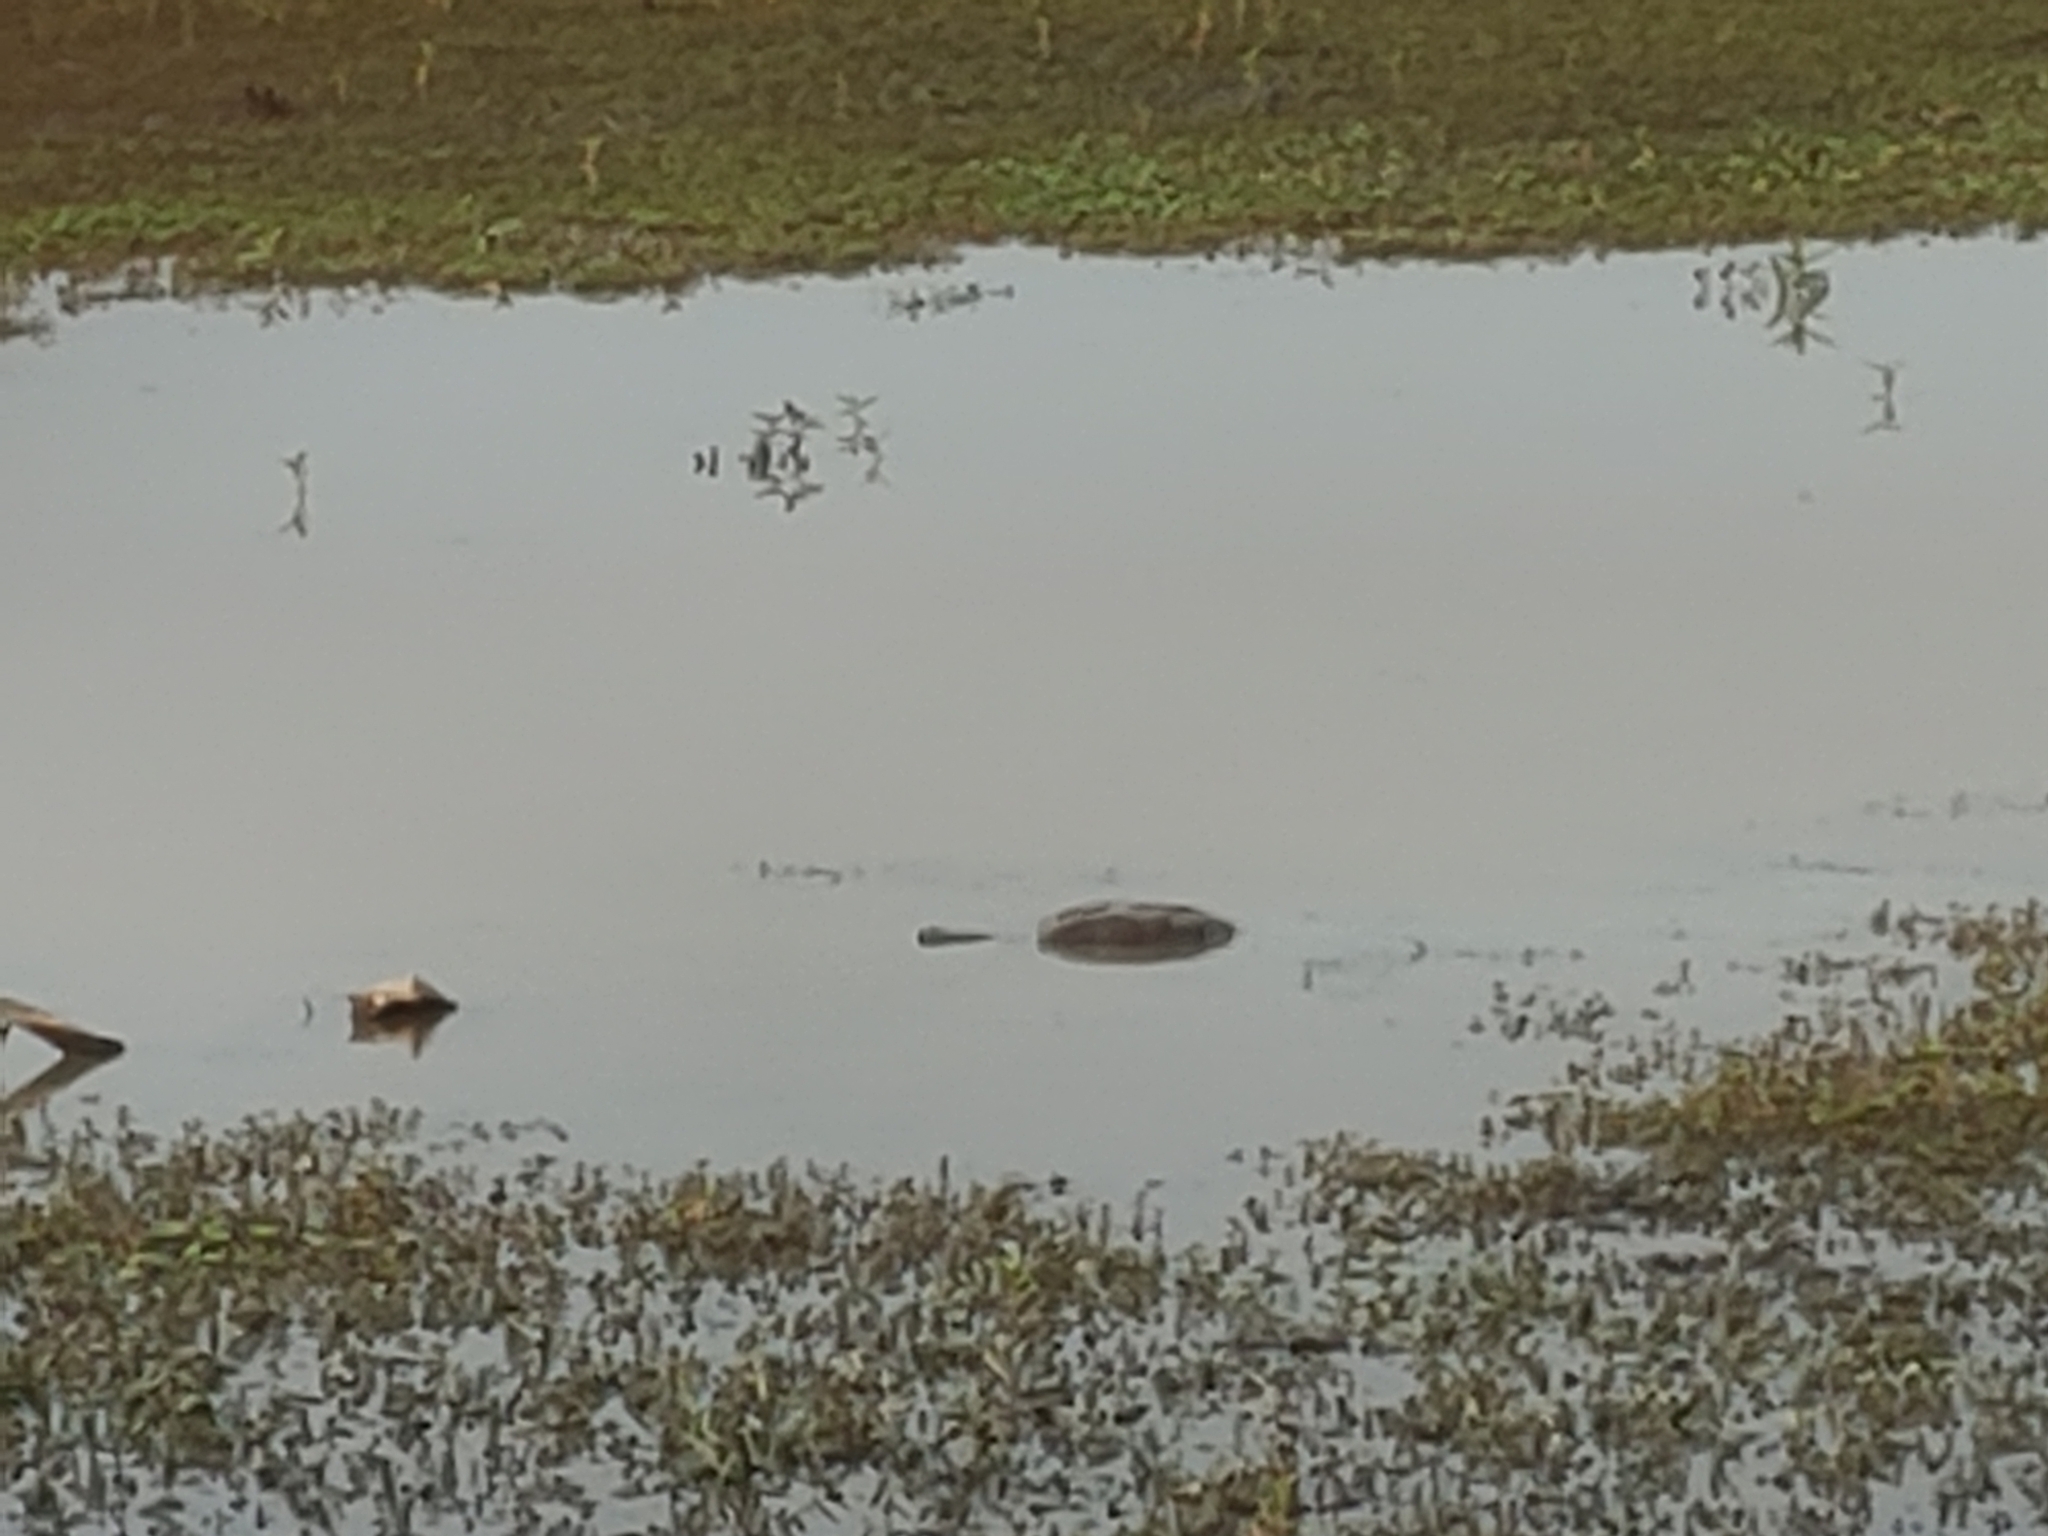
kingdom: Animalia
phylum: Chordata
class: Testudines
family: Chelydridae
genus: Chelydra
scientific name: Chelydra serpentina
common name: Common snapping turtle
